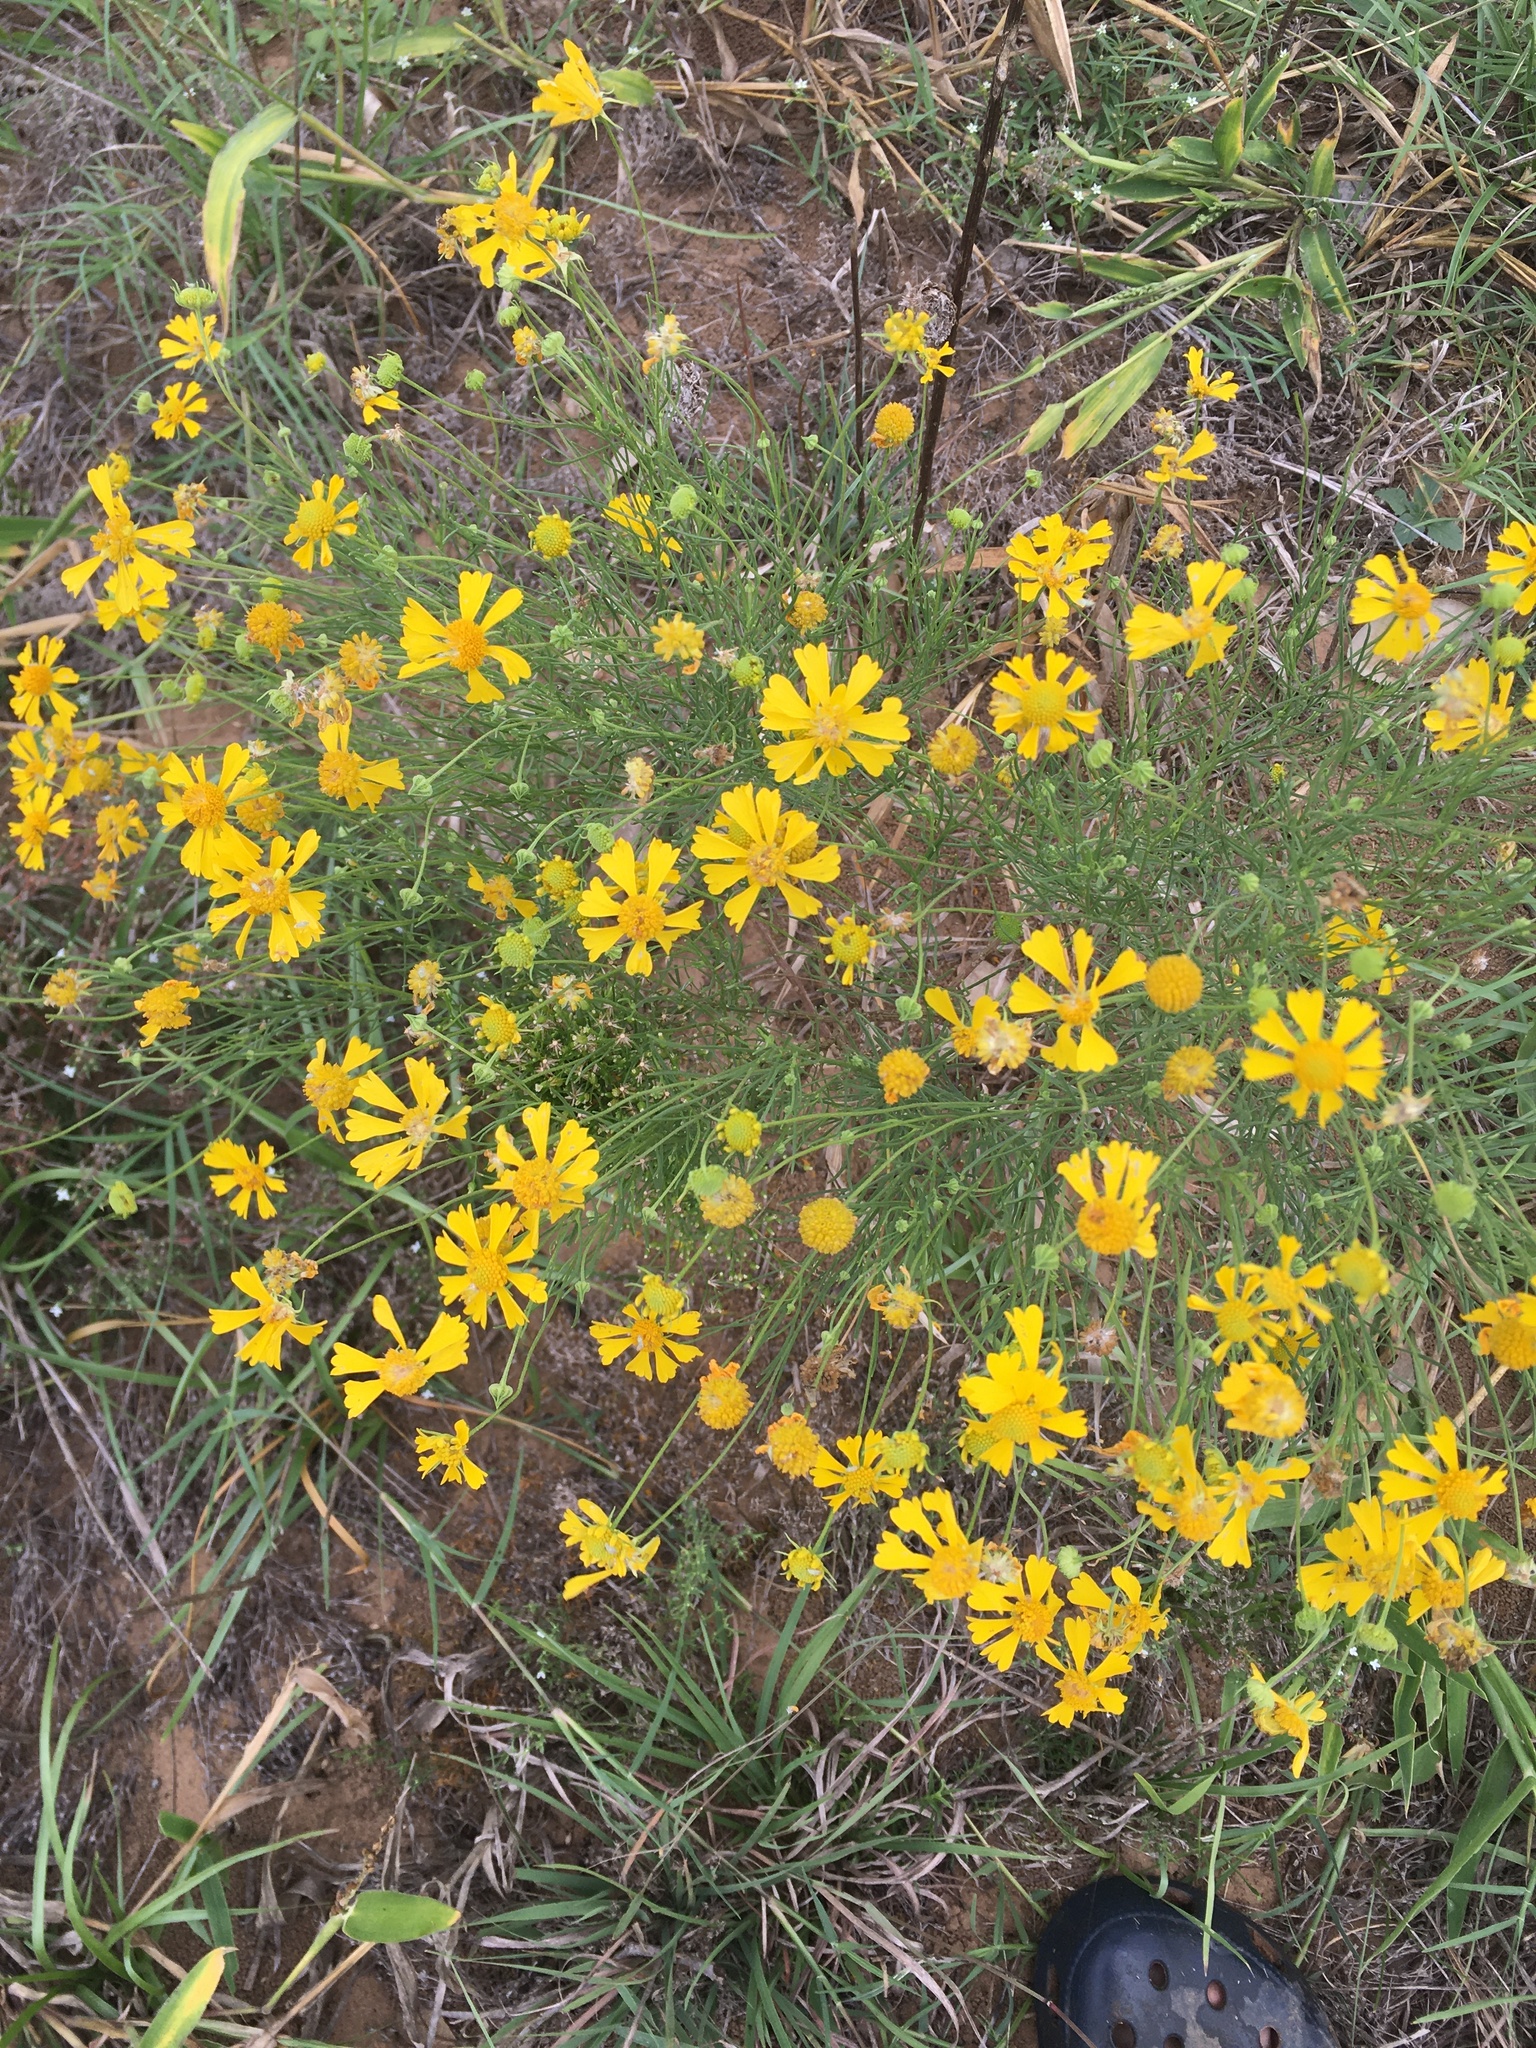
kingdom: Plantae
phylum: Tracheophyta
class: Magnoliopsida
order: Asterales
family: Asteraceae
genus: Helenium
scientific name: Helenium amarum
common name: Bitter sneezeweed
